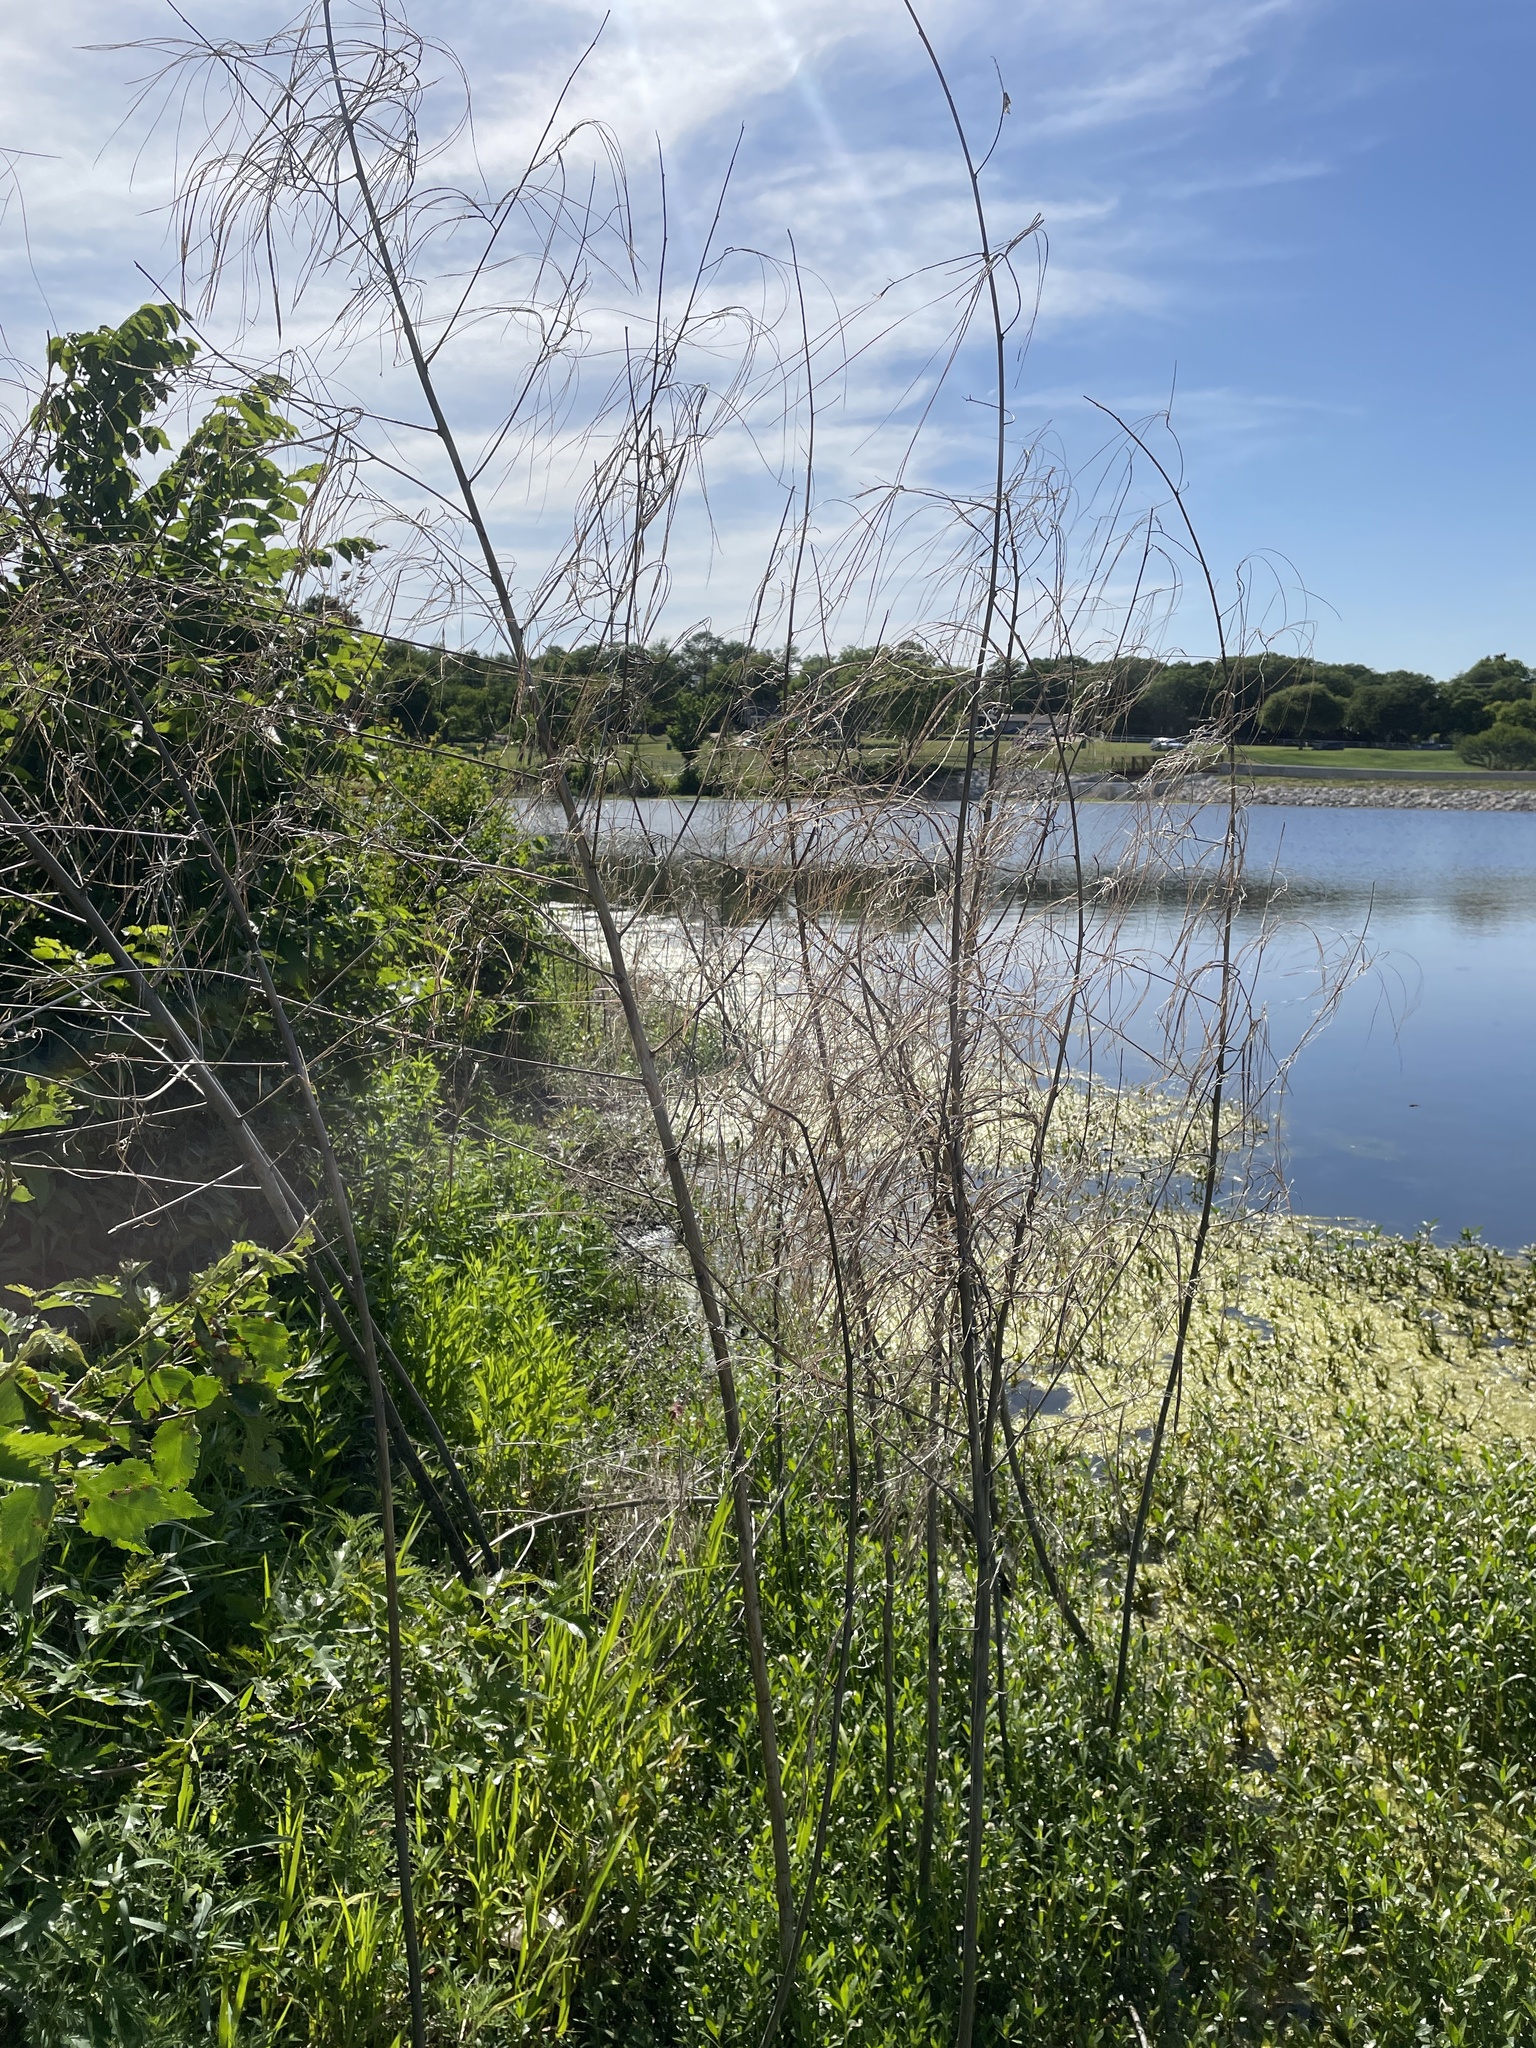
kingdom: Plantae
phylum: Tracheophyta
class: Magnoliopsida
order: Fabales
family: Fabaceae
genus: Sesbania
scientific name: Sesbania herbacea
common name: Bigpod sesbania
